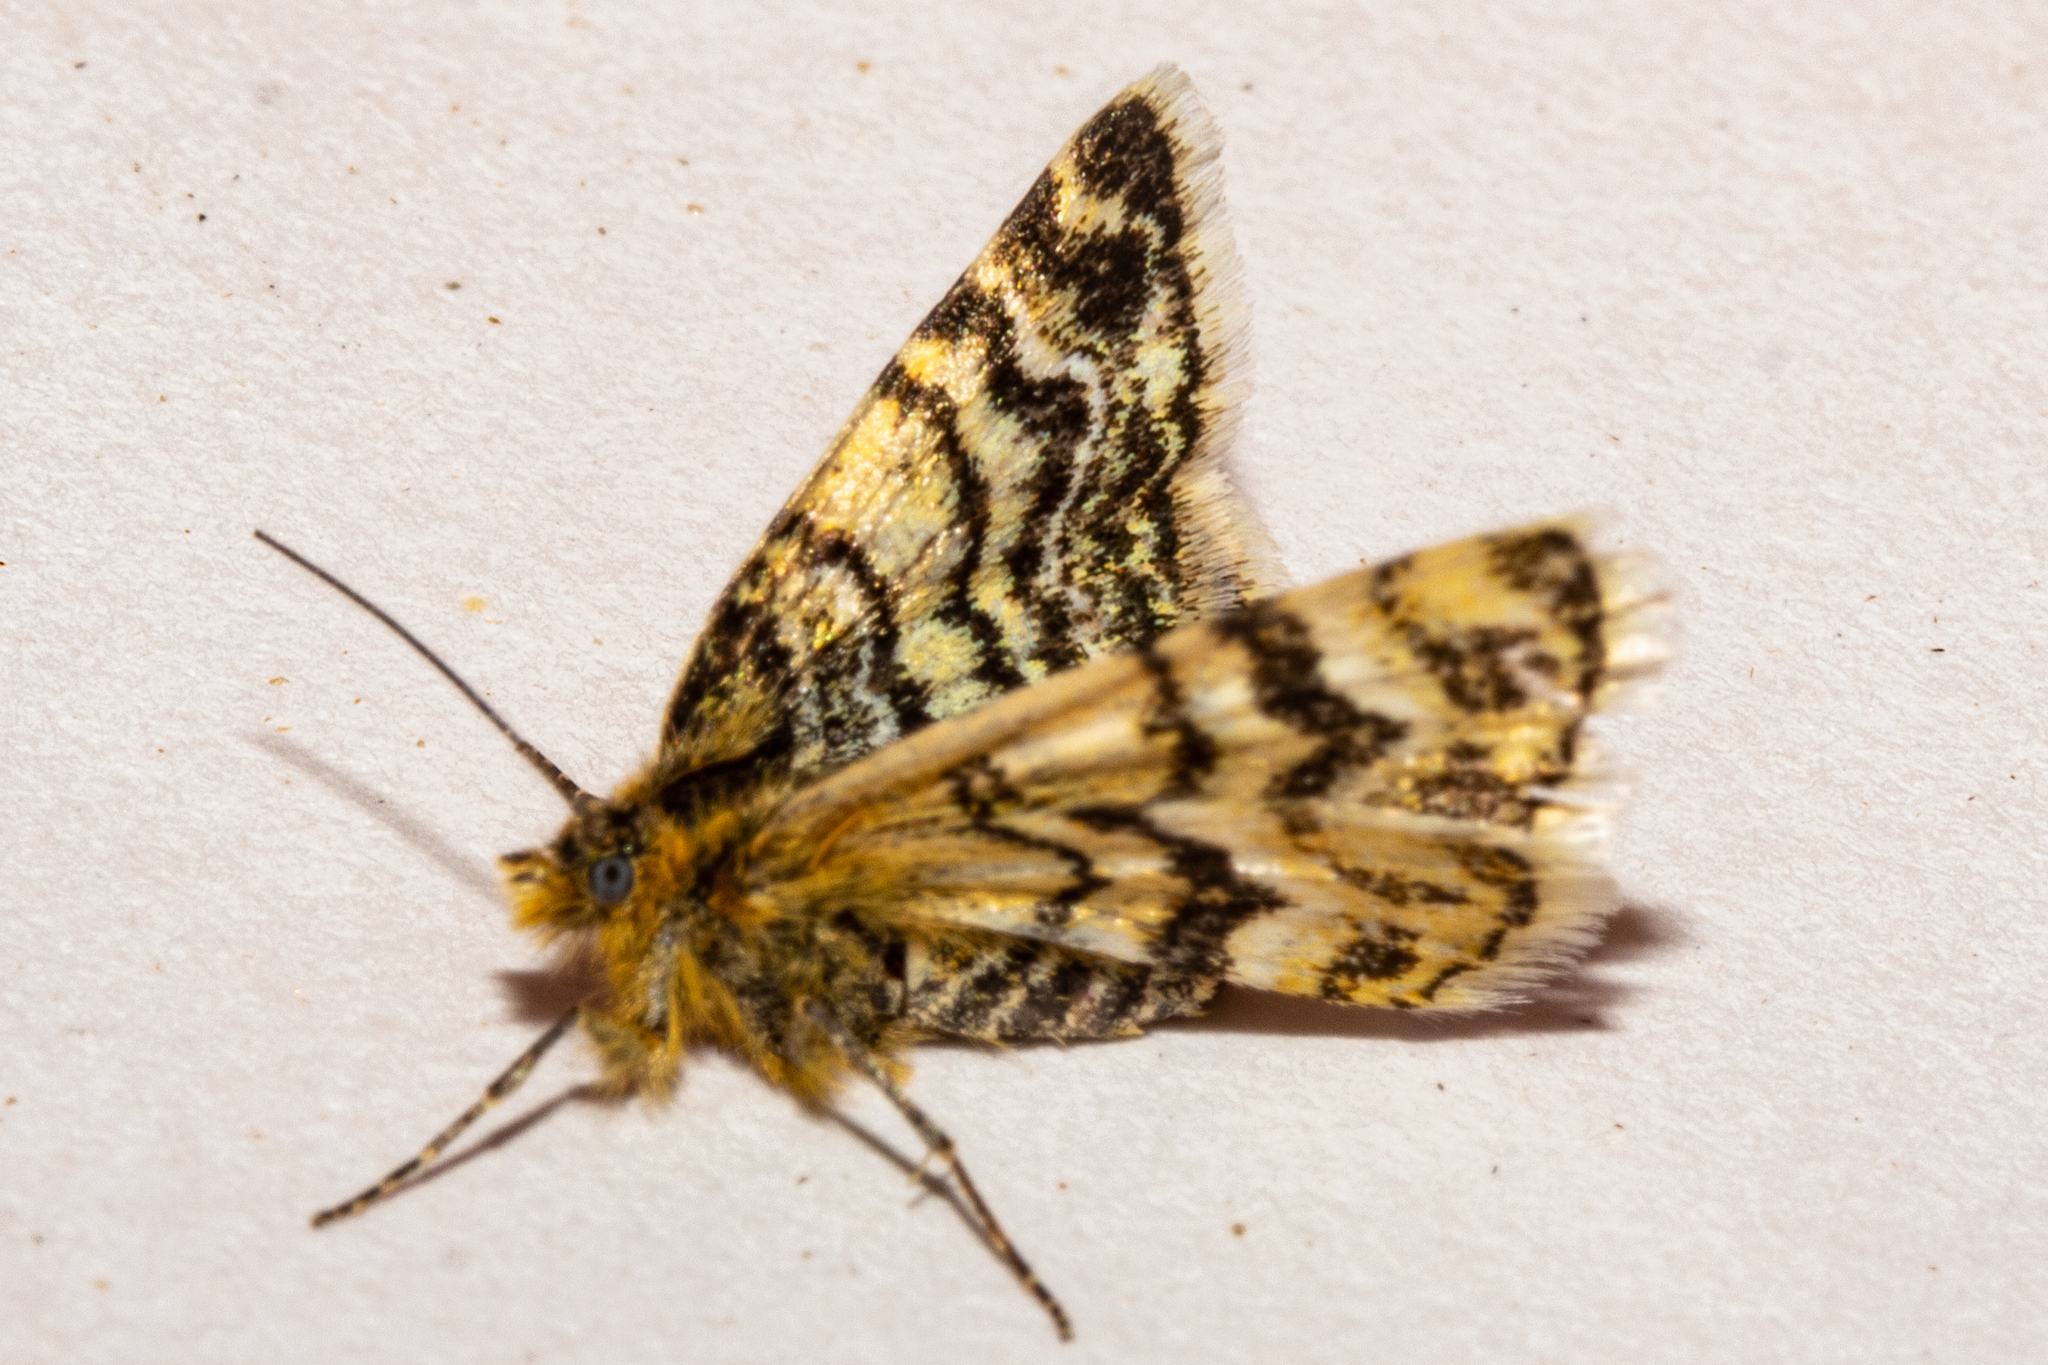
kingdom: Animalia
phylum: Arthropoda
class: Insecta
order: Lepidoptera
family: Geometridae
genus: Notoreas
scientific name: Notoreas chioneres
